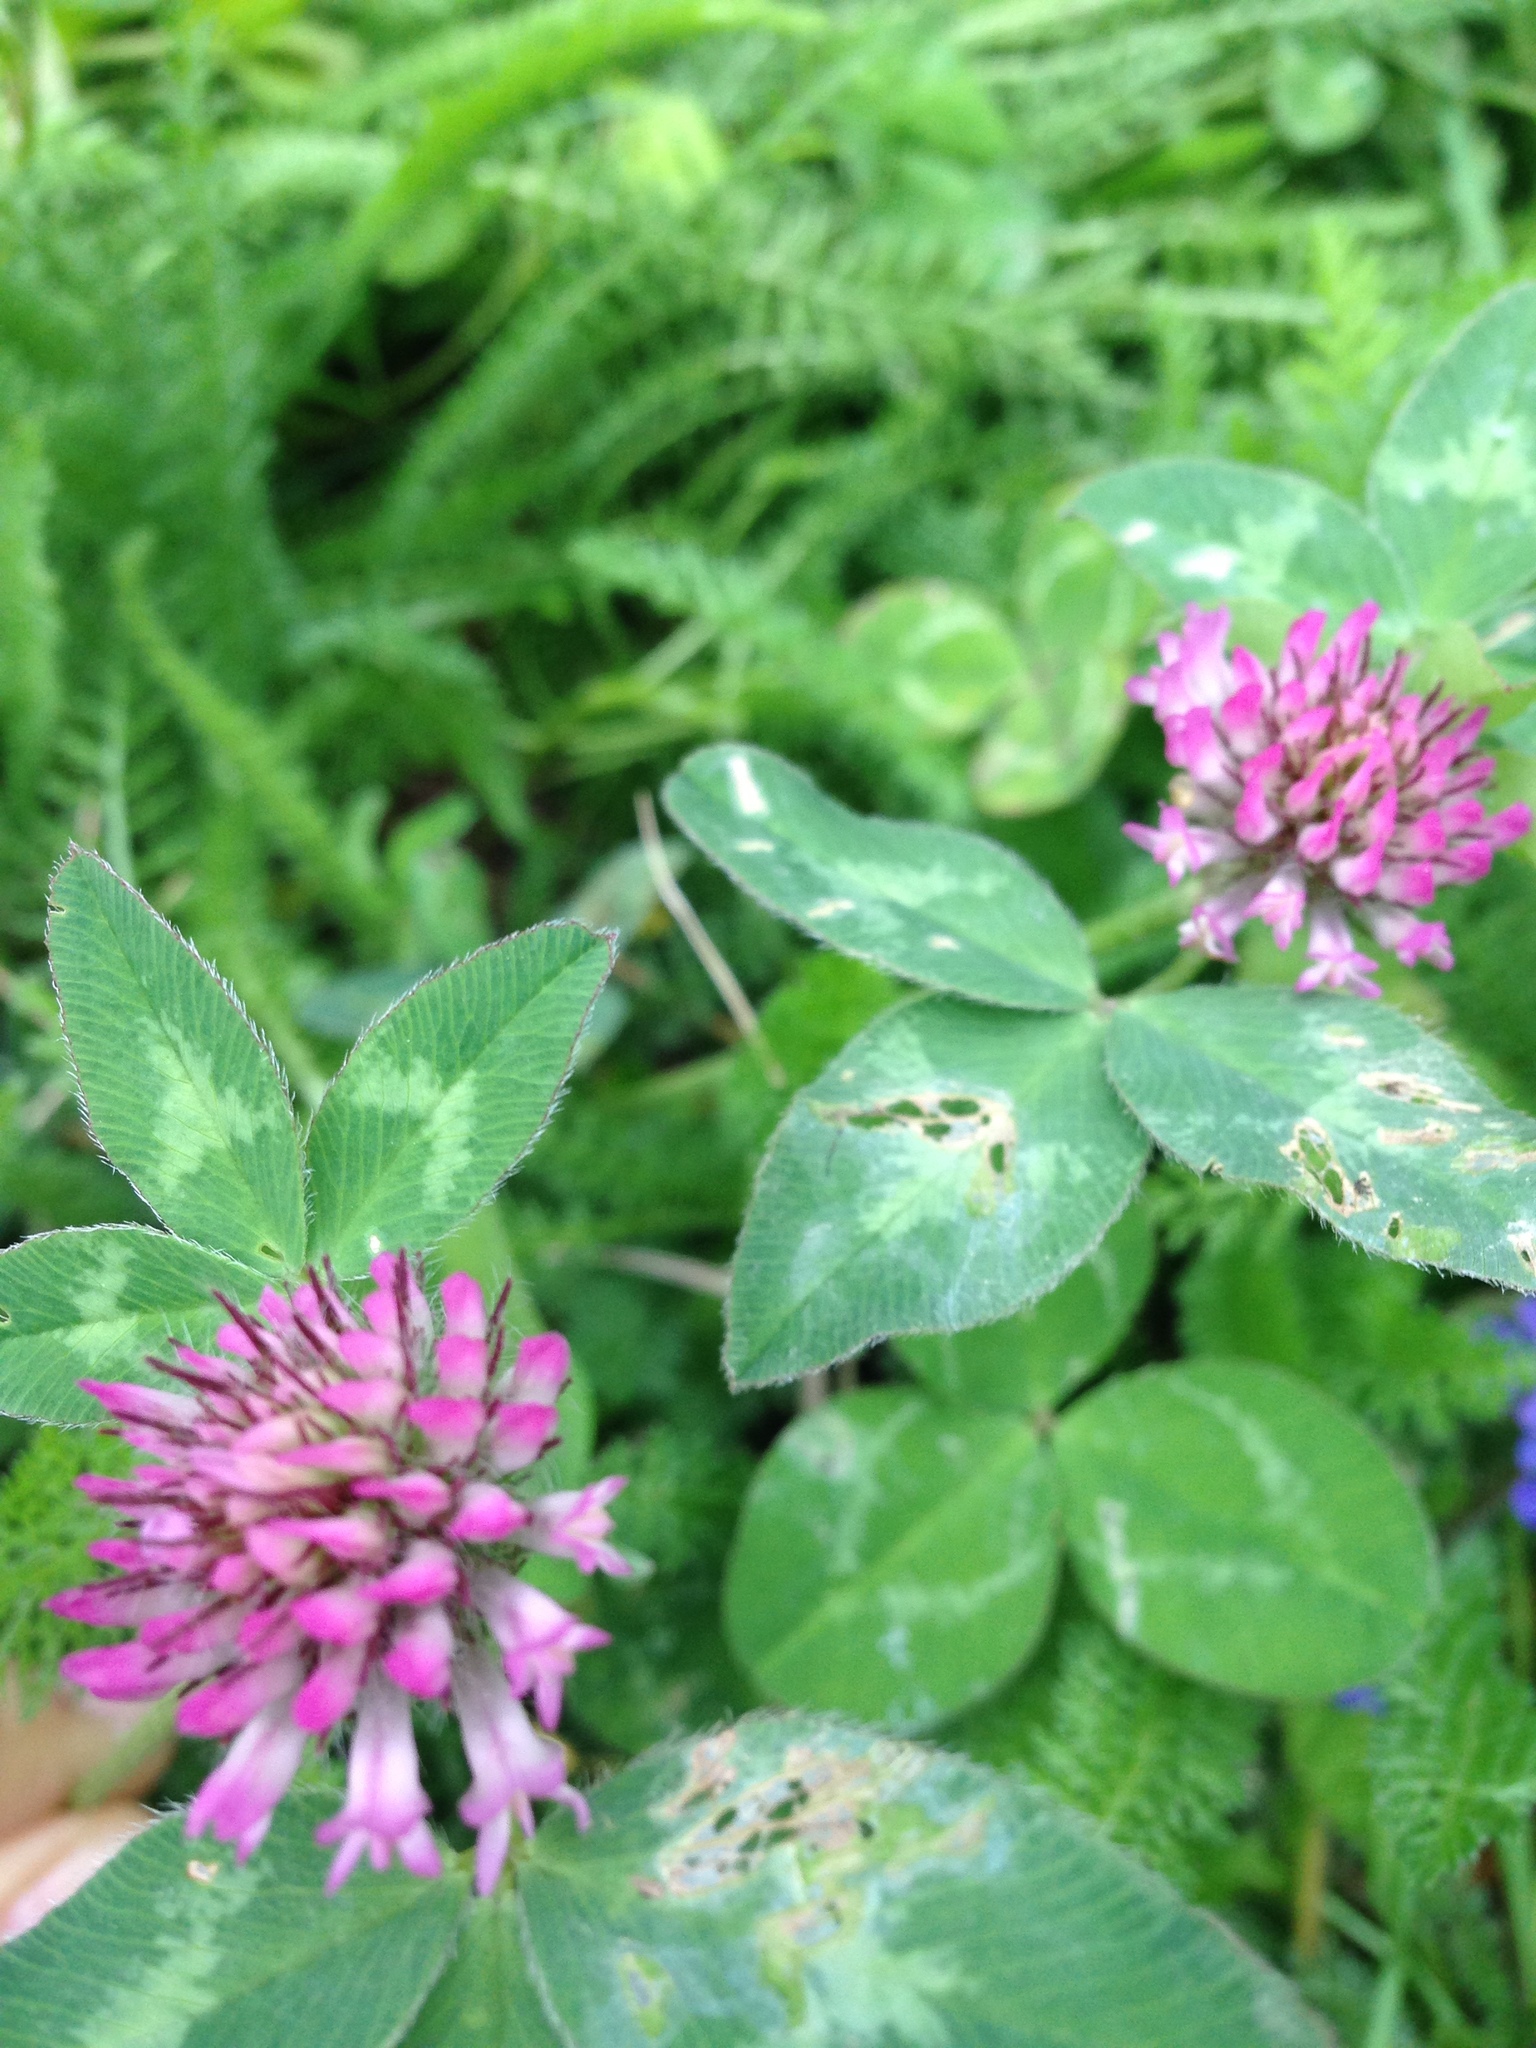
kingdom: Plantae
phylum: Tracheophyta
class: Magnoliopsida
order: Fabales
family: Fabaceae
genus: Trifolium
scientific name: Trifolium pratense
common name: Red clover
